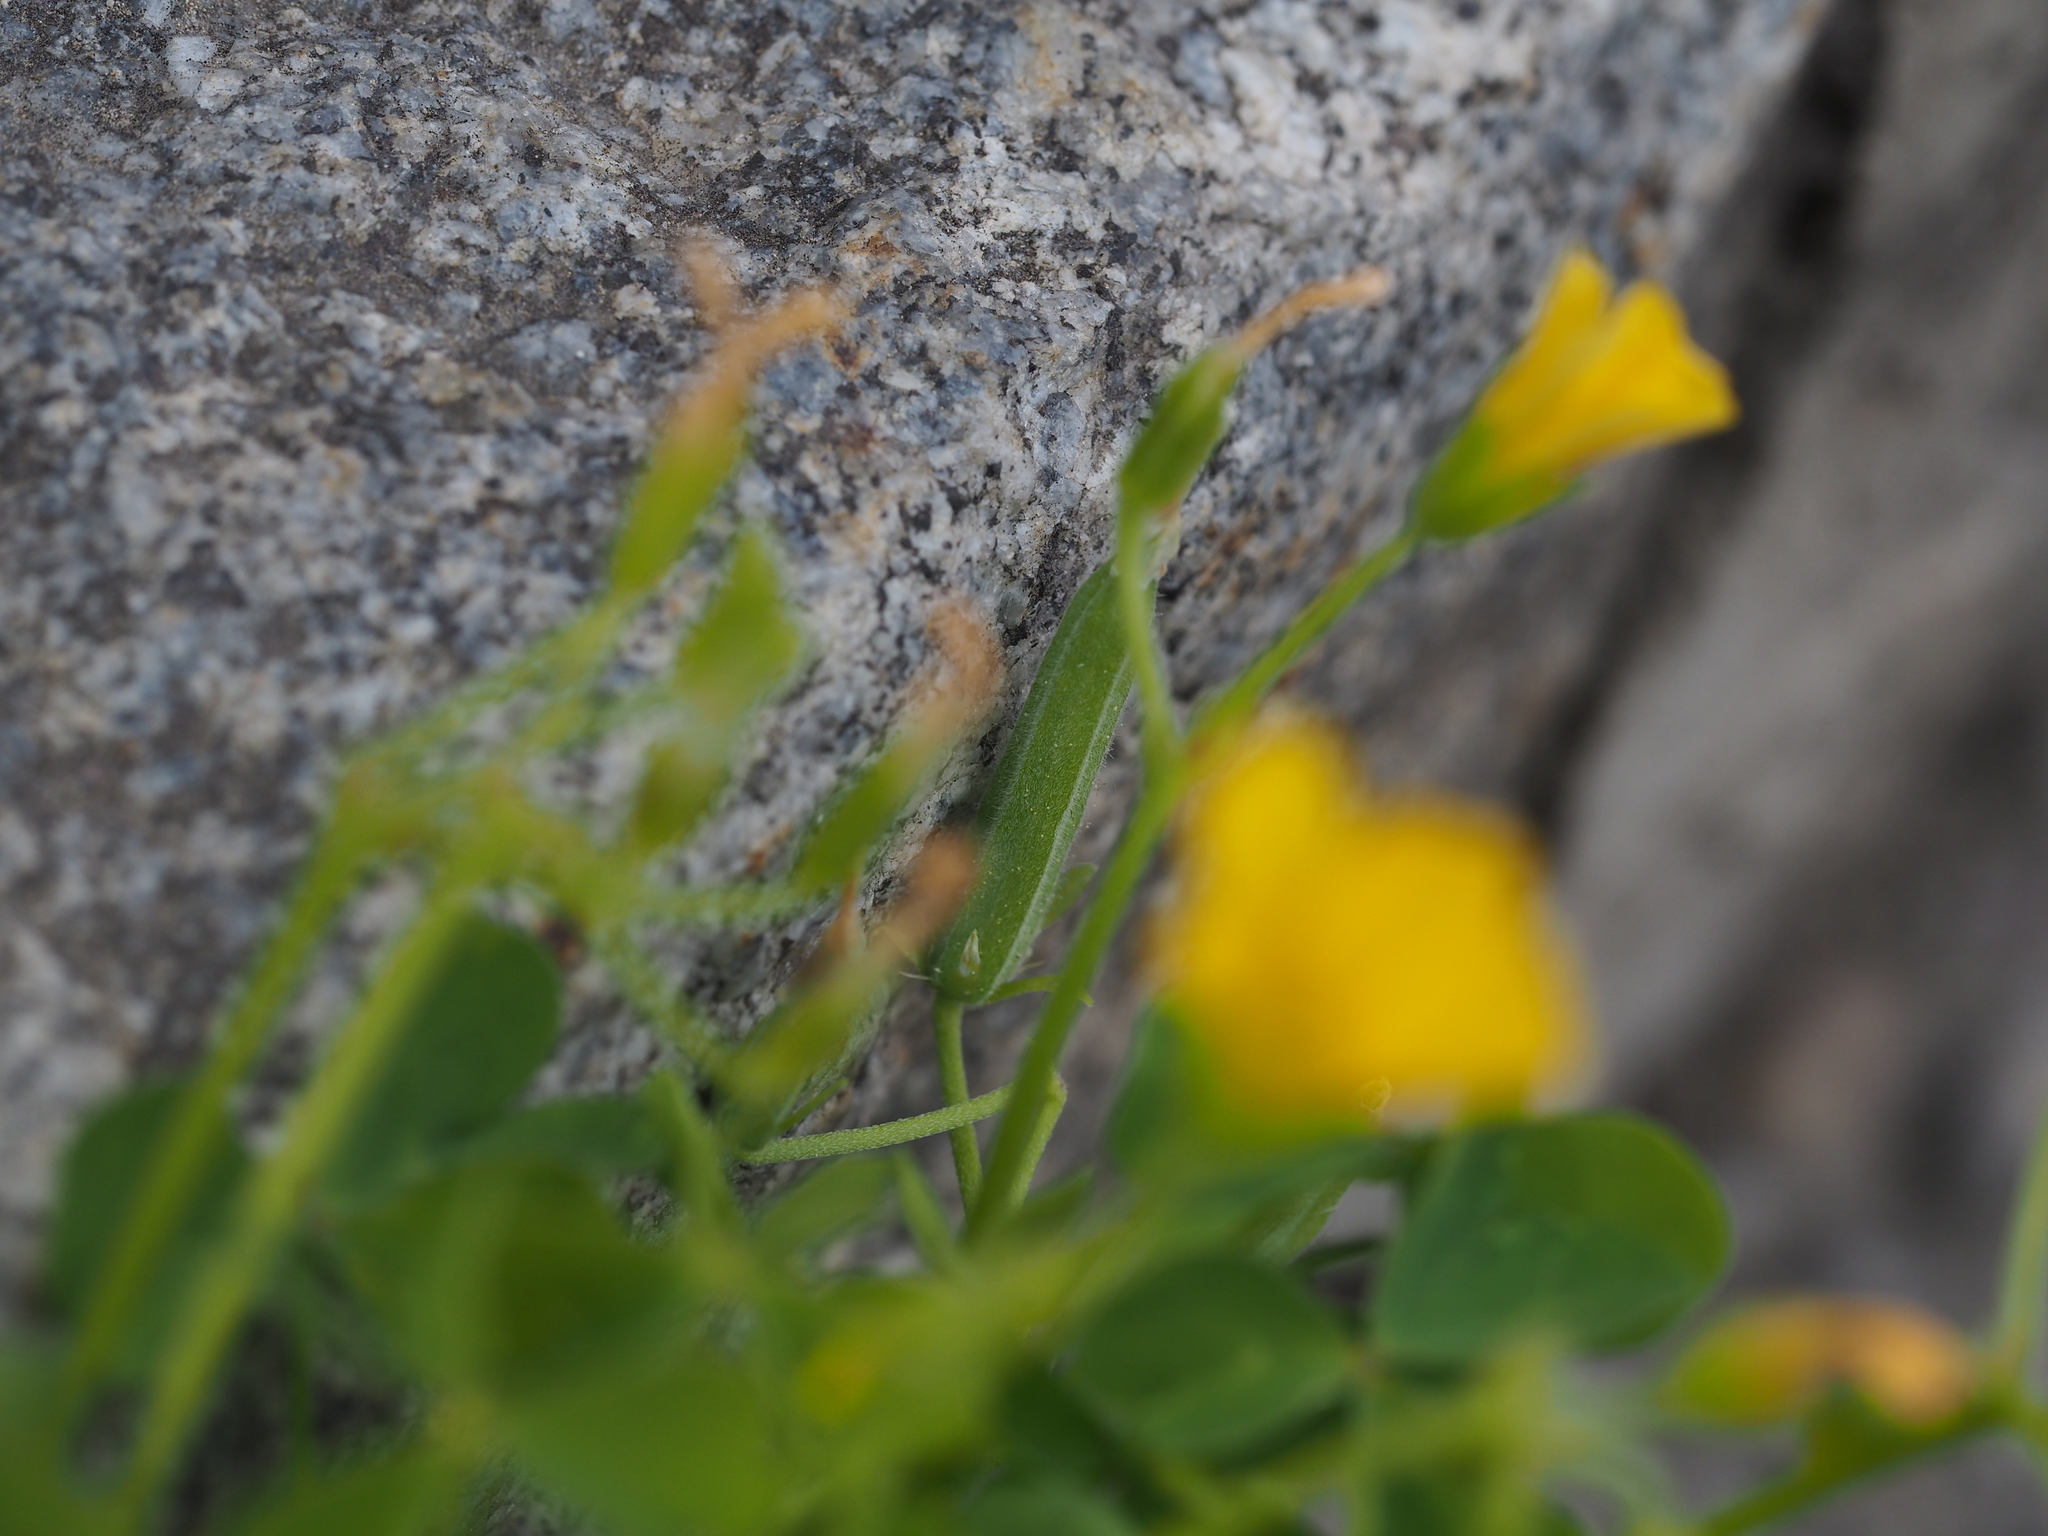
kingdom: Plantae
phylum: Tracheophyta
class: Magnoliopsida
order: Oxalidales
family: Oxalidaceae
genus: Oxalis
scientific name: Oxalis dillenii
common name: Sussex yellow-sorrel
